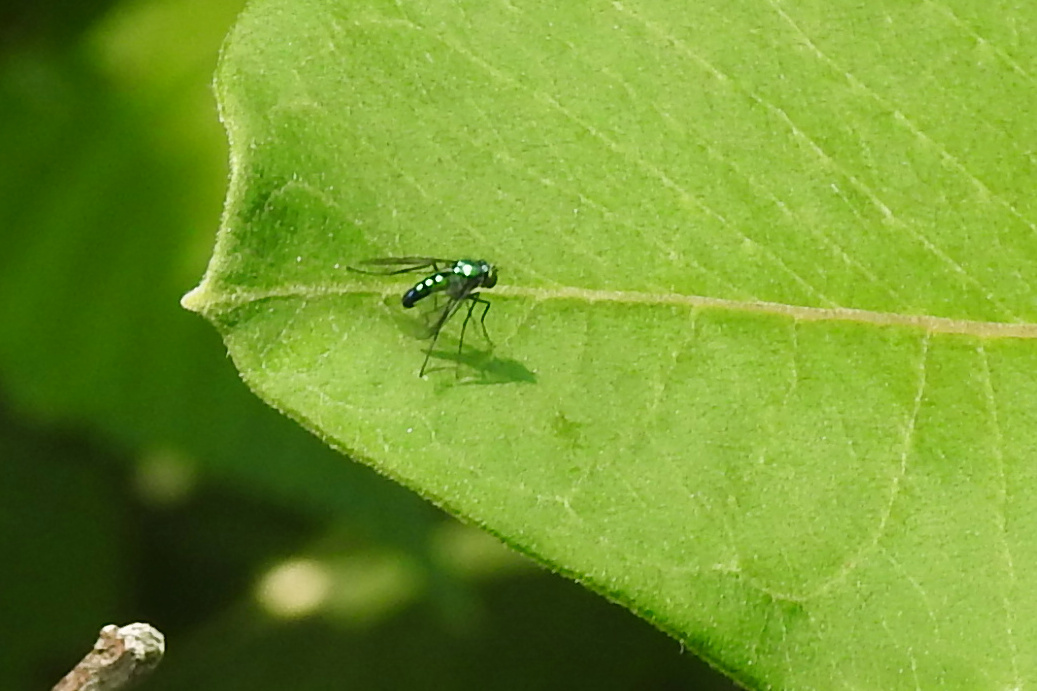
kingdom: Animalia
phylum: Arthropoda
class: Insecta
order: Diptera
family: Dolichopodidae
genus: Condylostylus
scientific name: Condylostylus patibulatus
